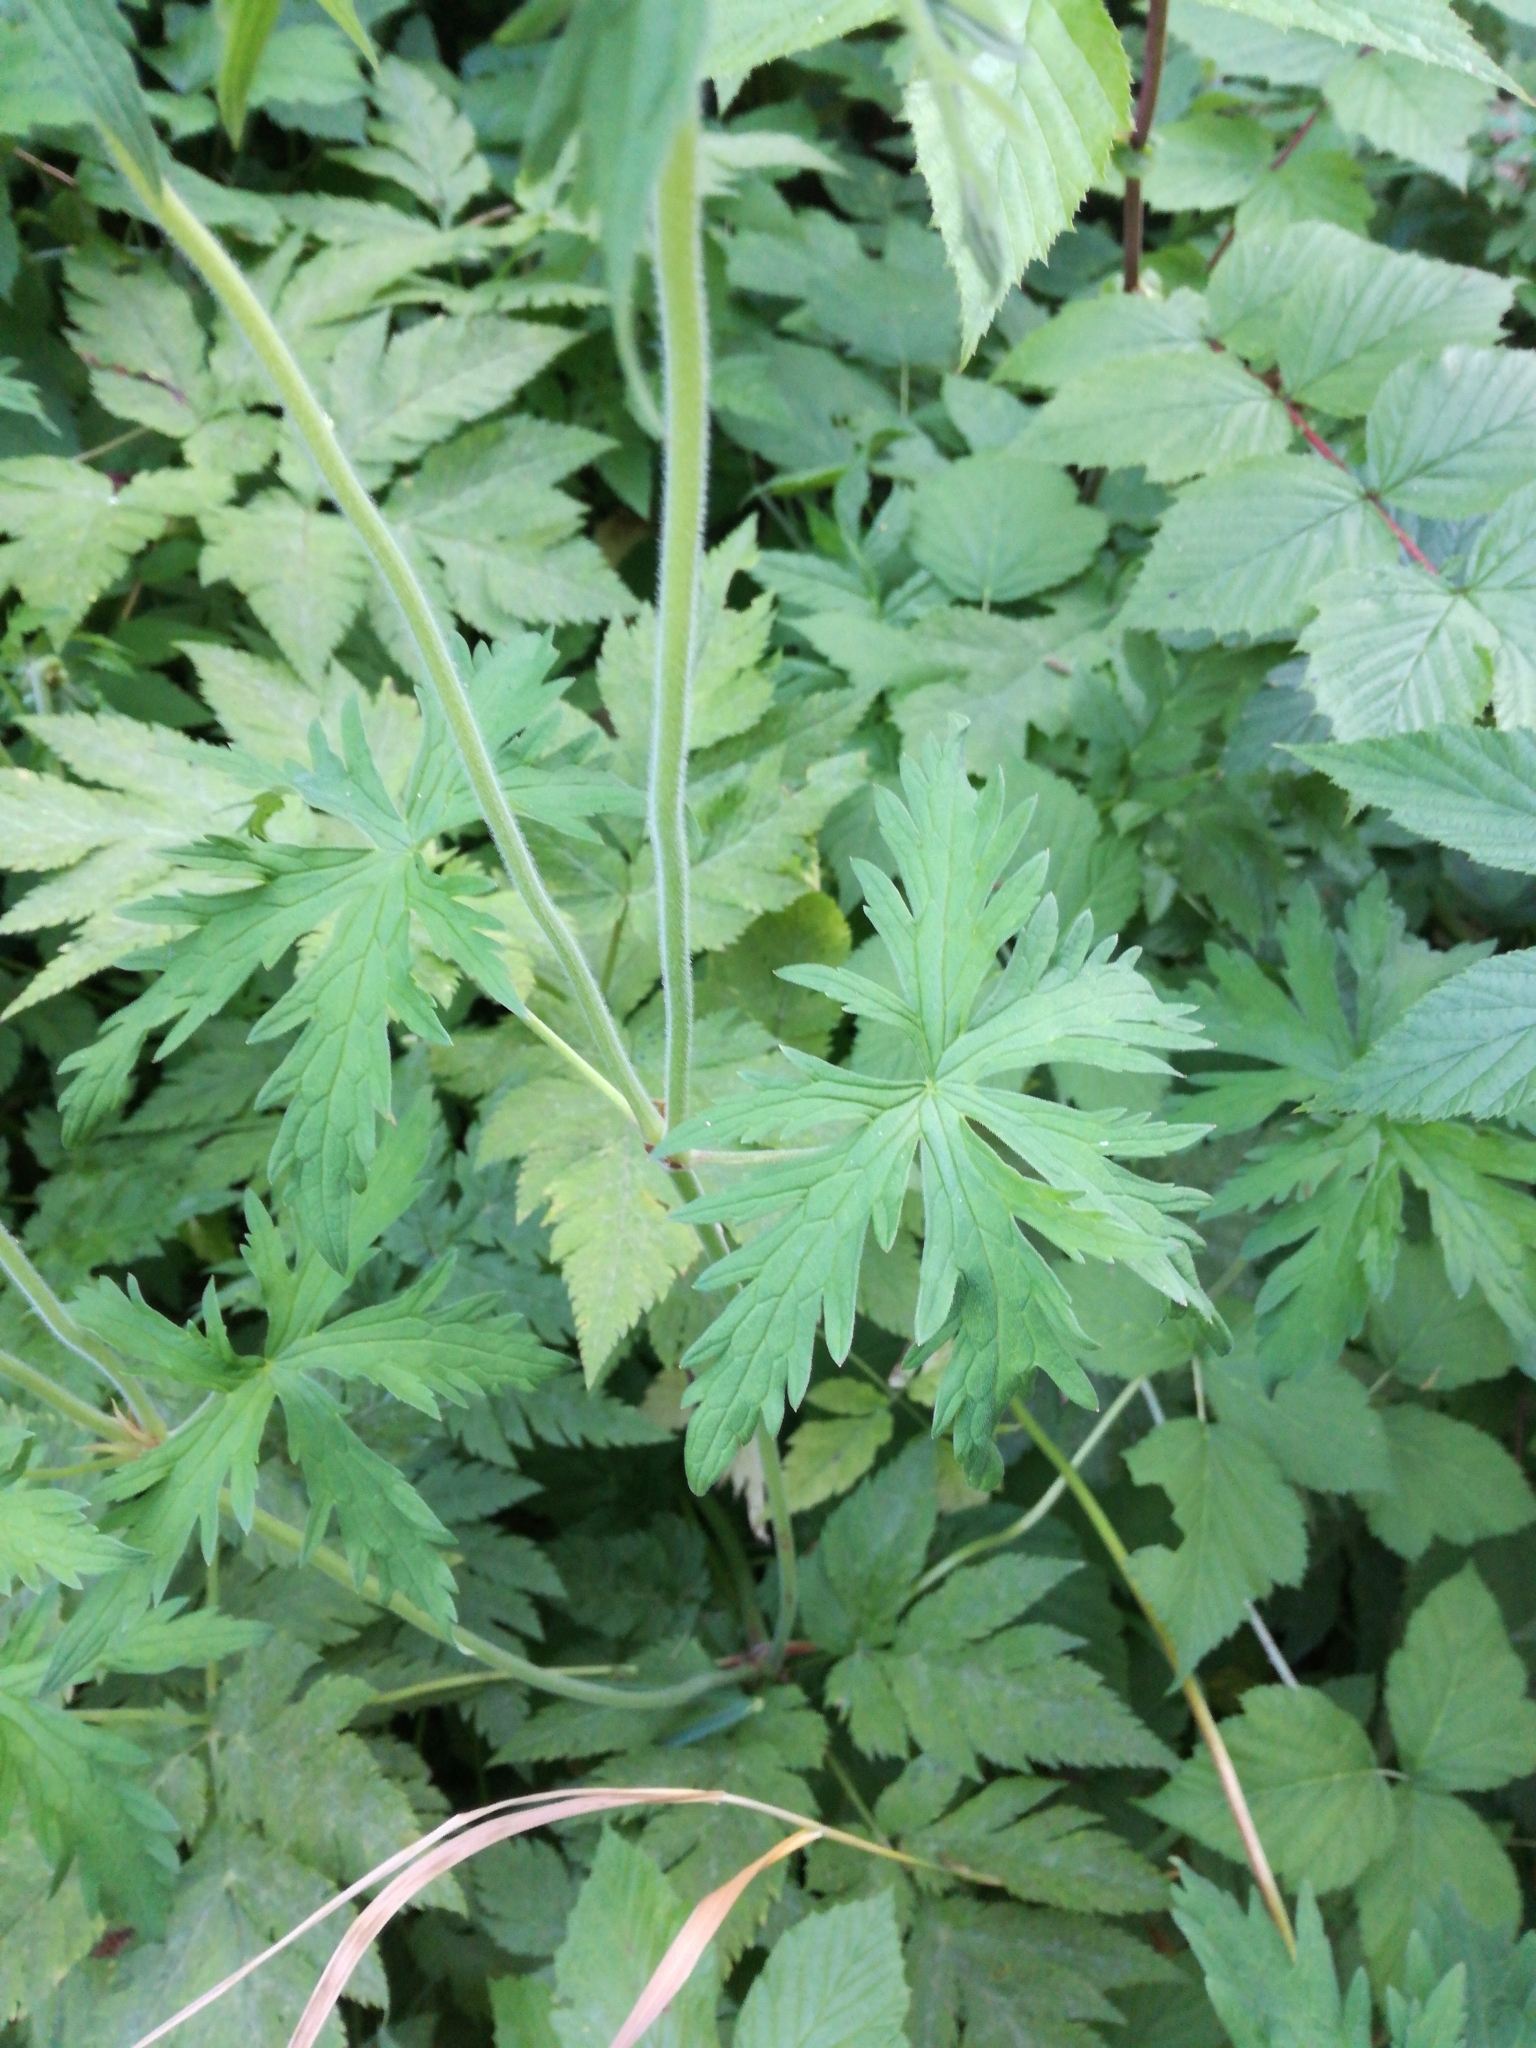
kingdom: Plantae
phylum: Tracheophyta
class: Magnoliopsida
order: Geraniales
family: Geraniaceae
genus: Geranium
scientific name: Geranium pratense
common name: Meadow crane's-bill
